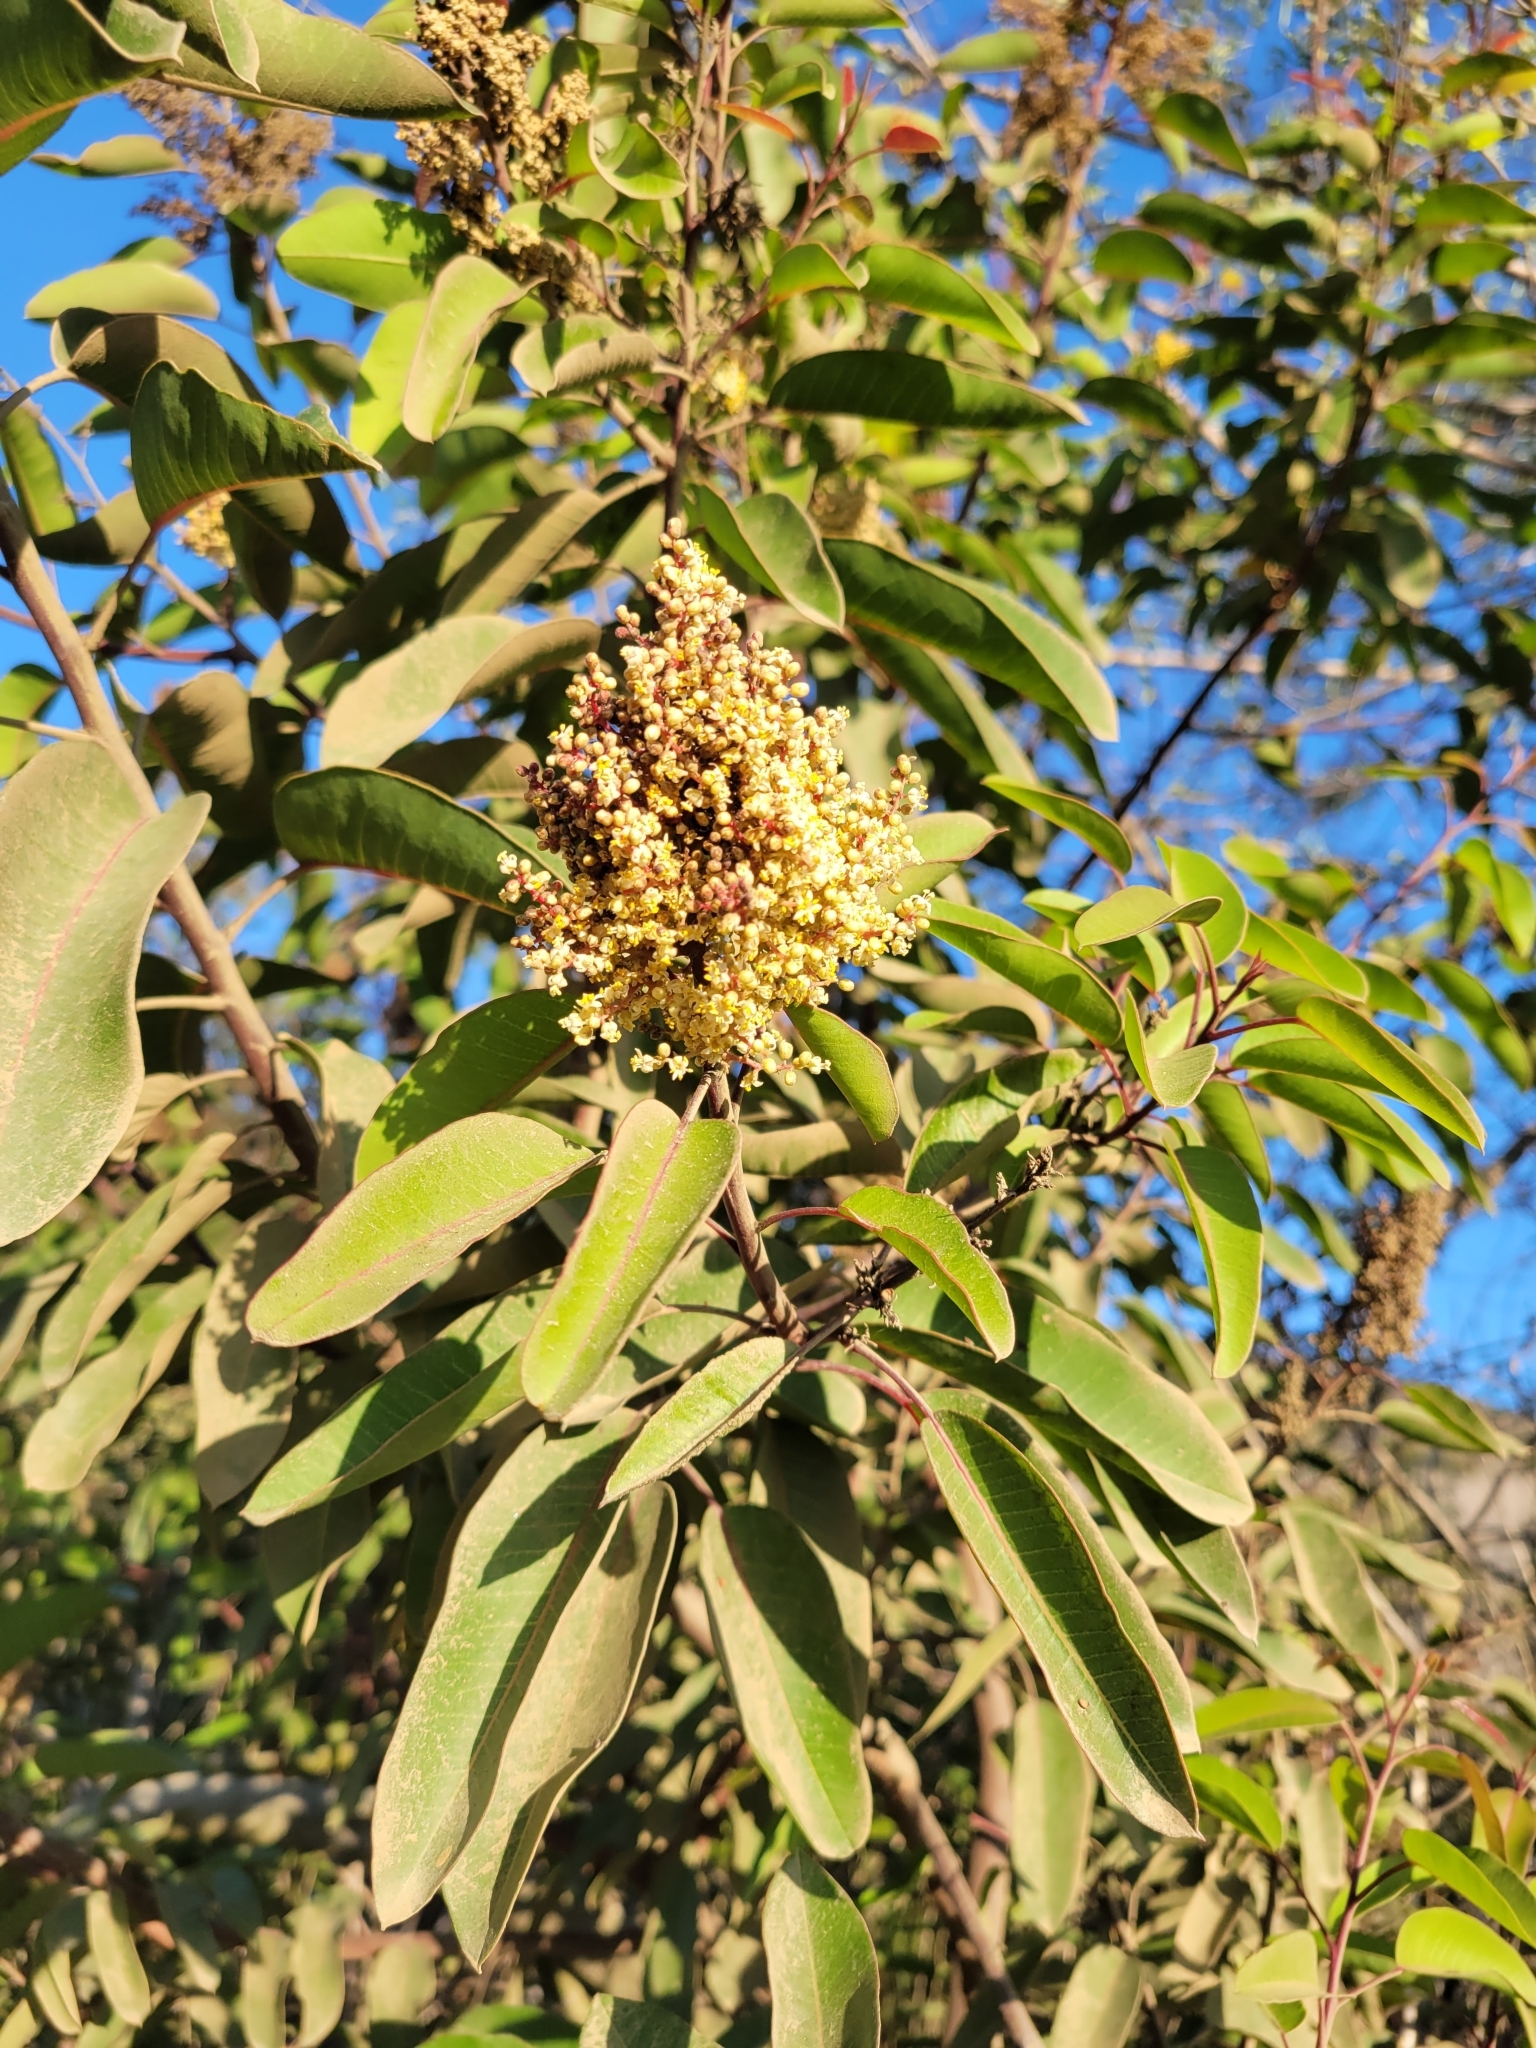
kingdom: Plantae
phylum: Tracheophyta
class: Magnoliopsida
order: Sapindales
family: Anacardiaceae
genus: Malosma
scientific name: Malosma laurina
